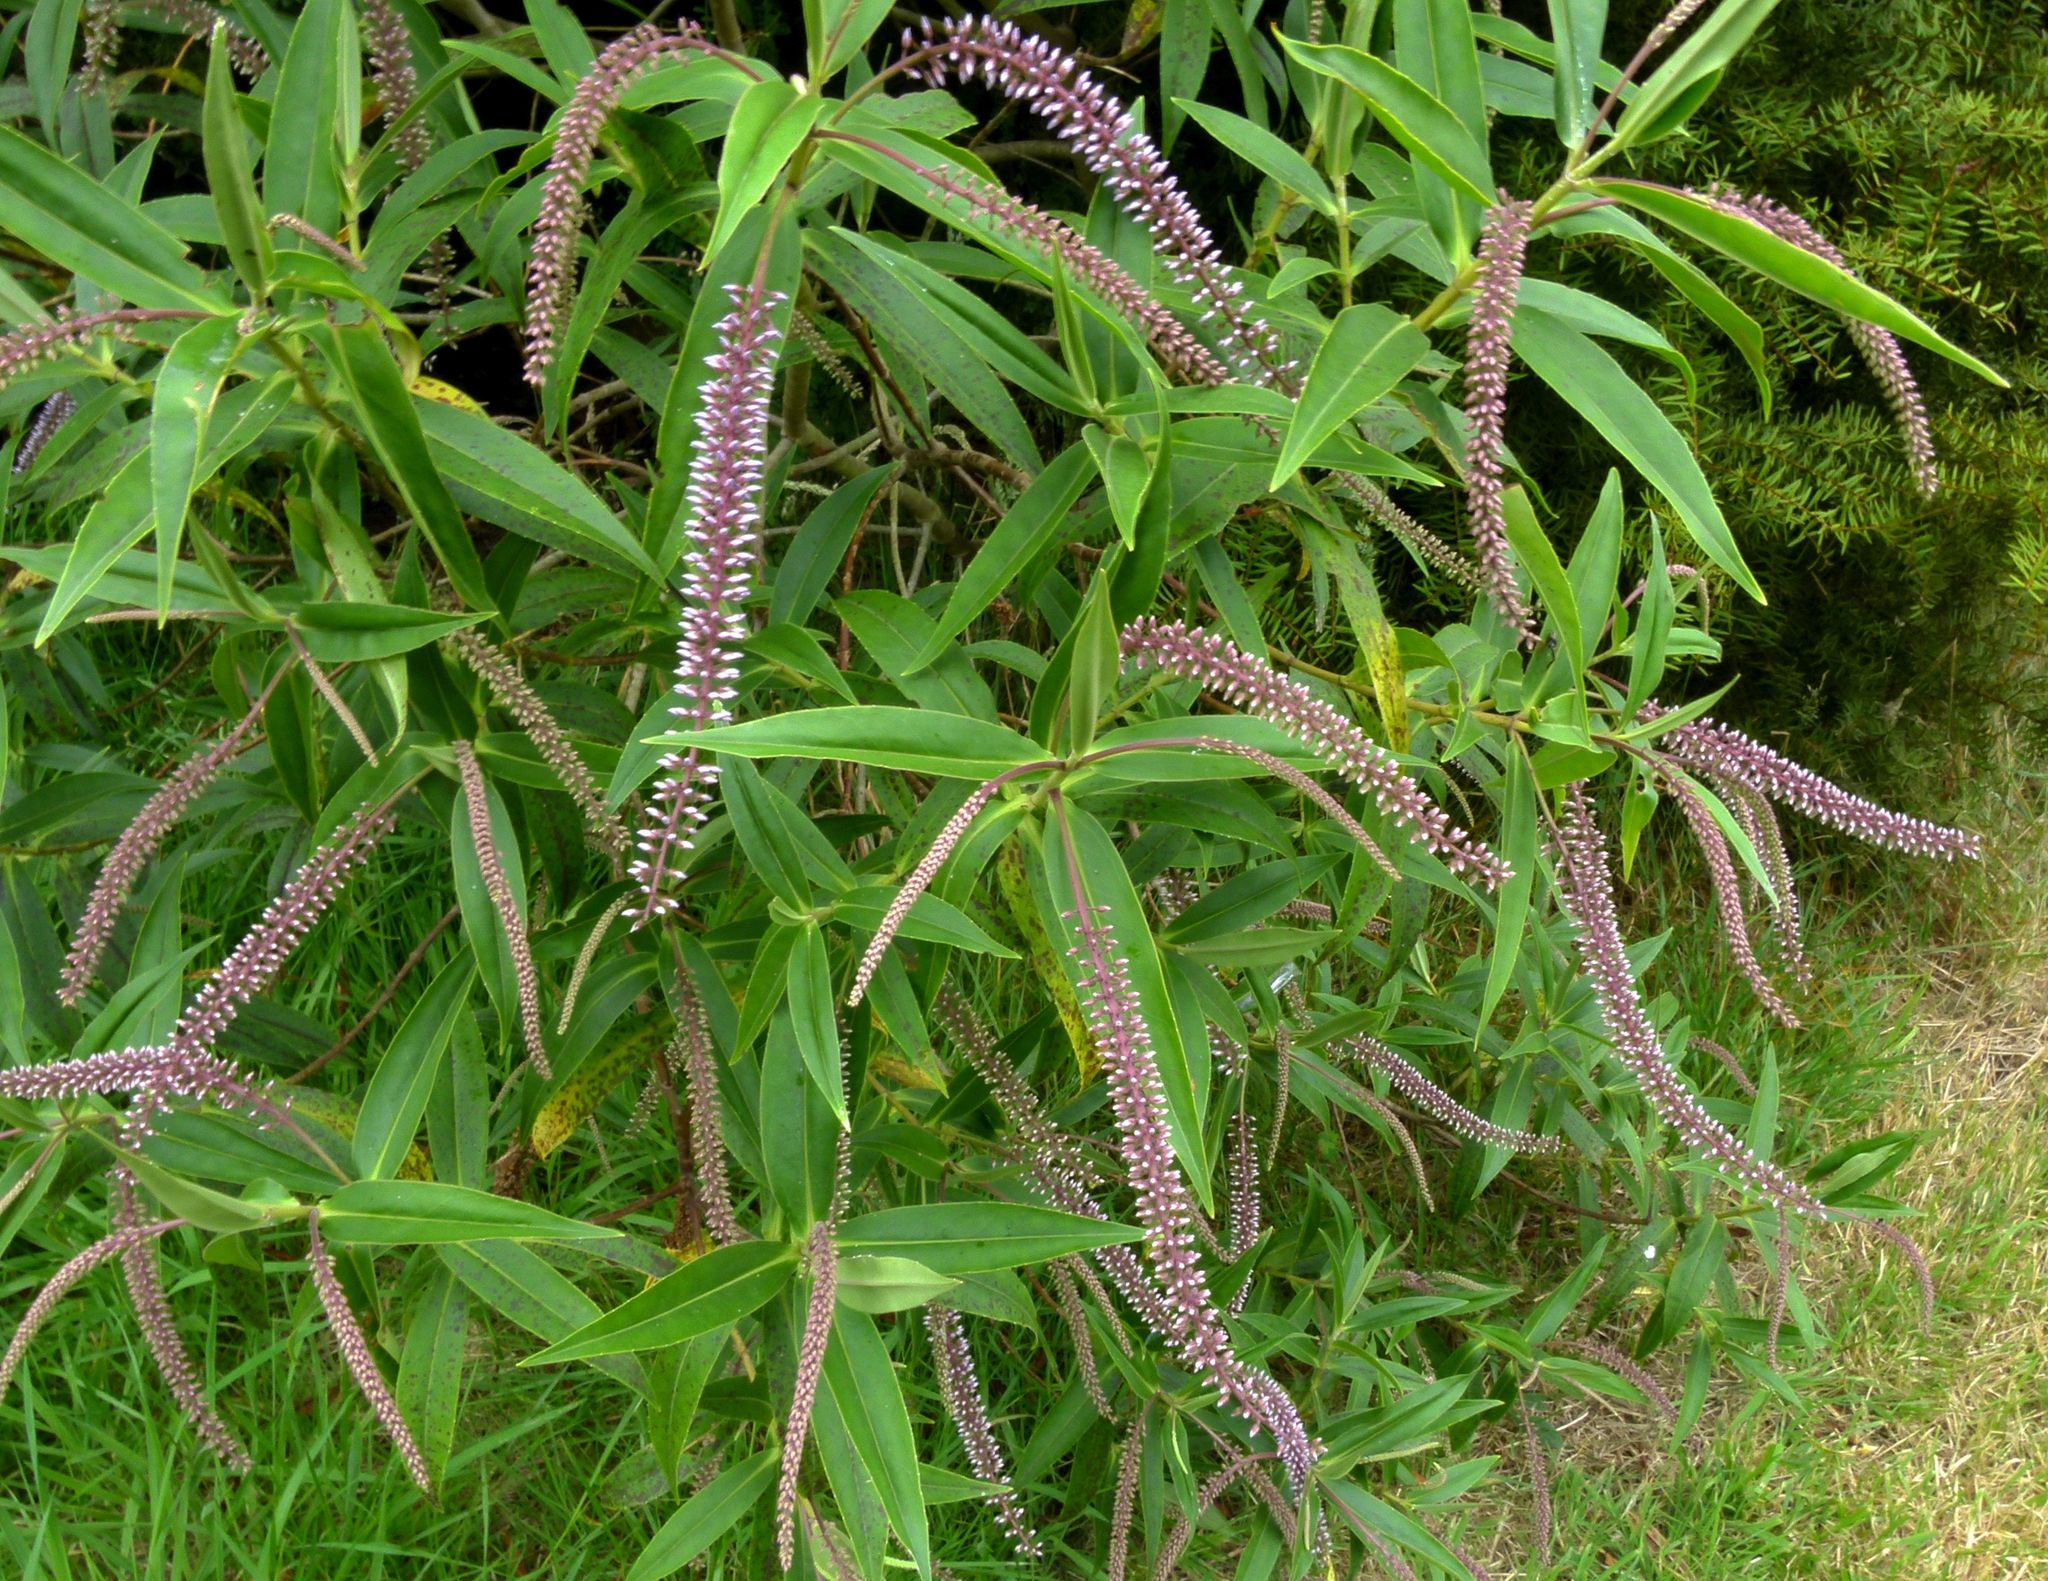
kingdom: Plantae
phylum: Tracheophyta
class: Magnoliopsida
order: Lamiales
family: Plantaginaceae
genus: Veronica
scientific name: Veronica salicifolia
